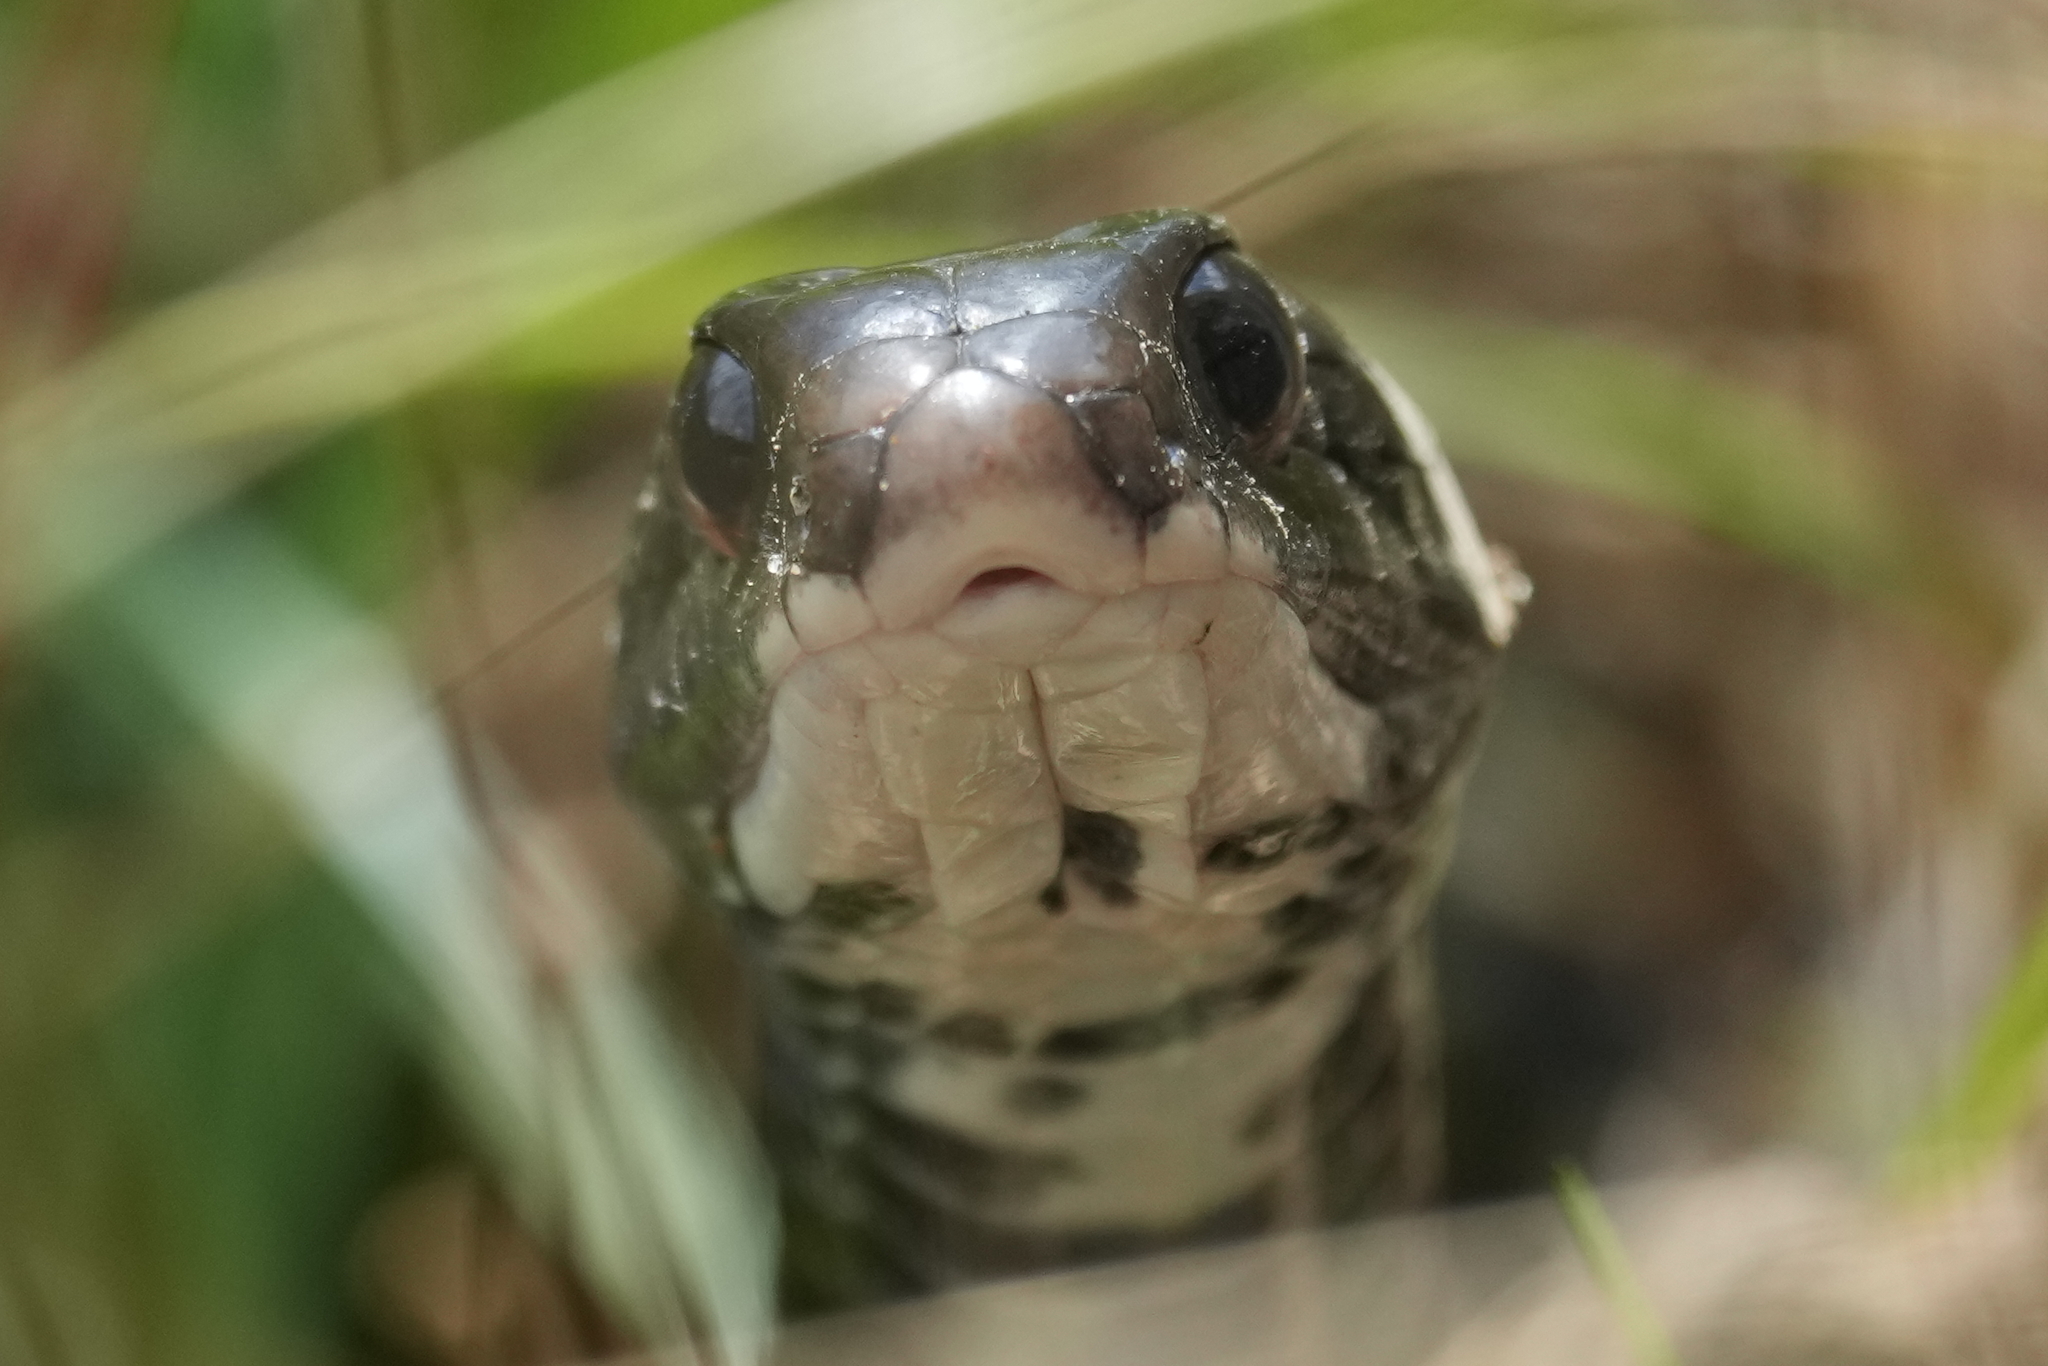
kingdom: Animalia
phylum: Chordata
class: Squamata
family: Colubridae
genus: Coluber
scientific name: Coluber constrictor
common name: Eastern racer
